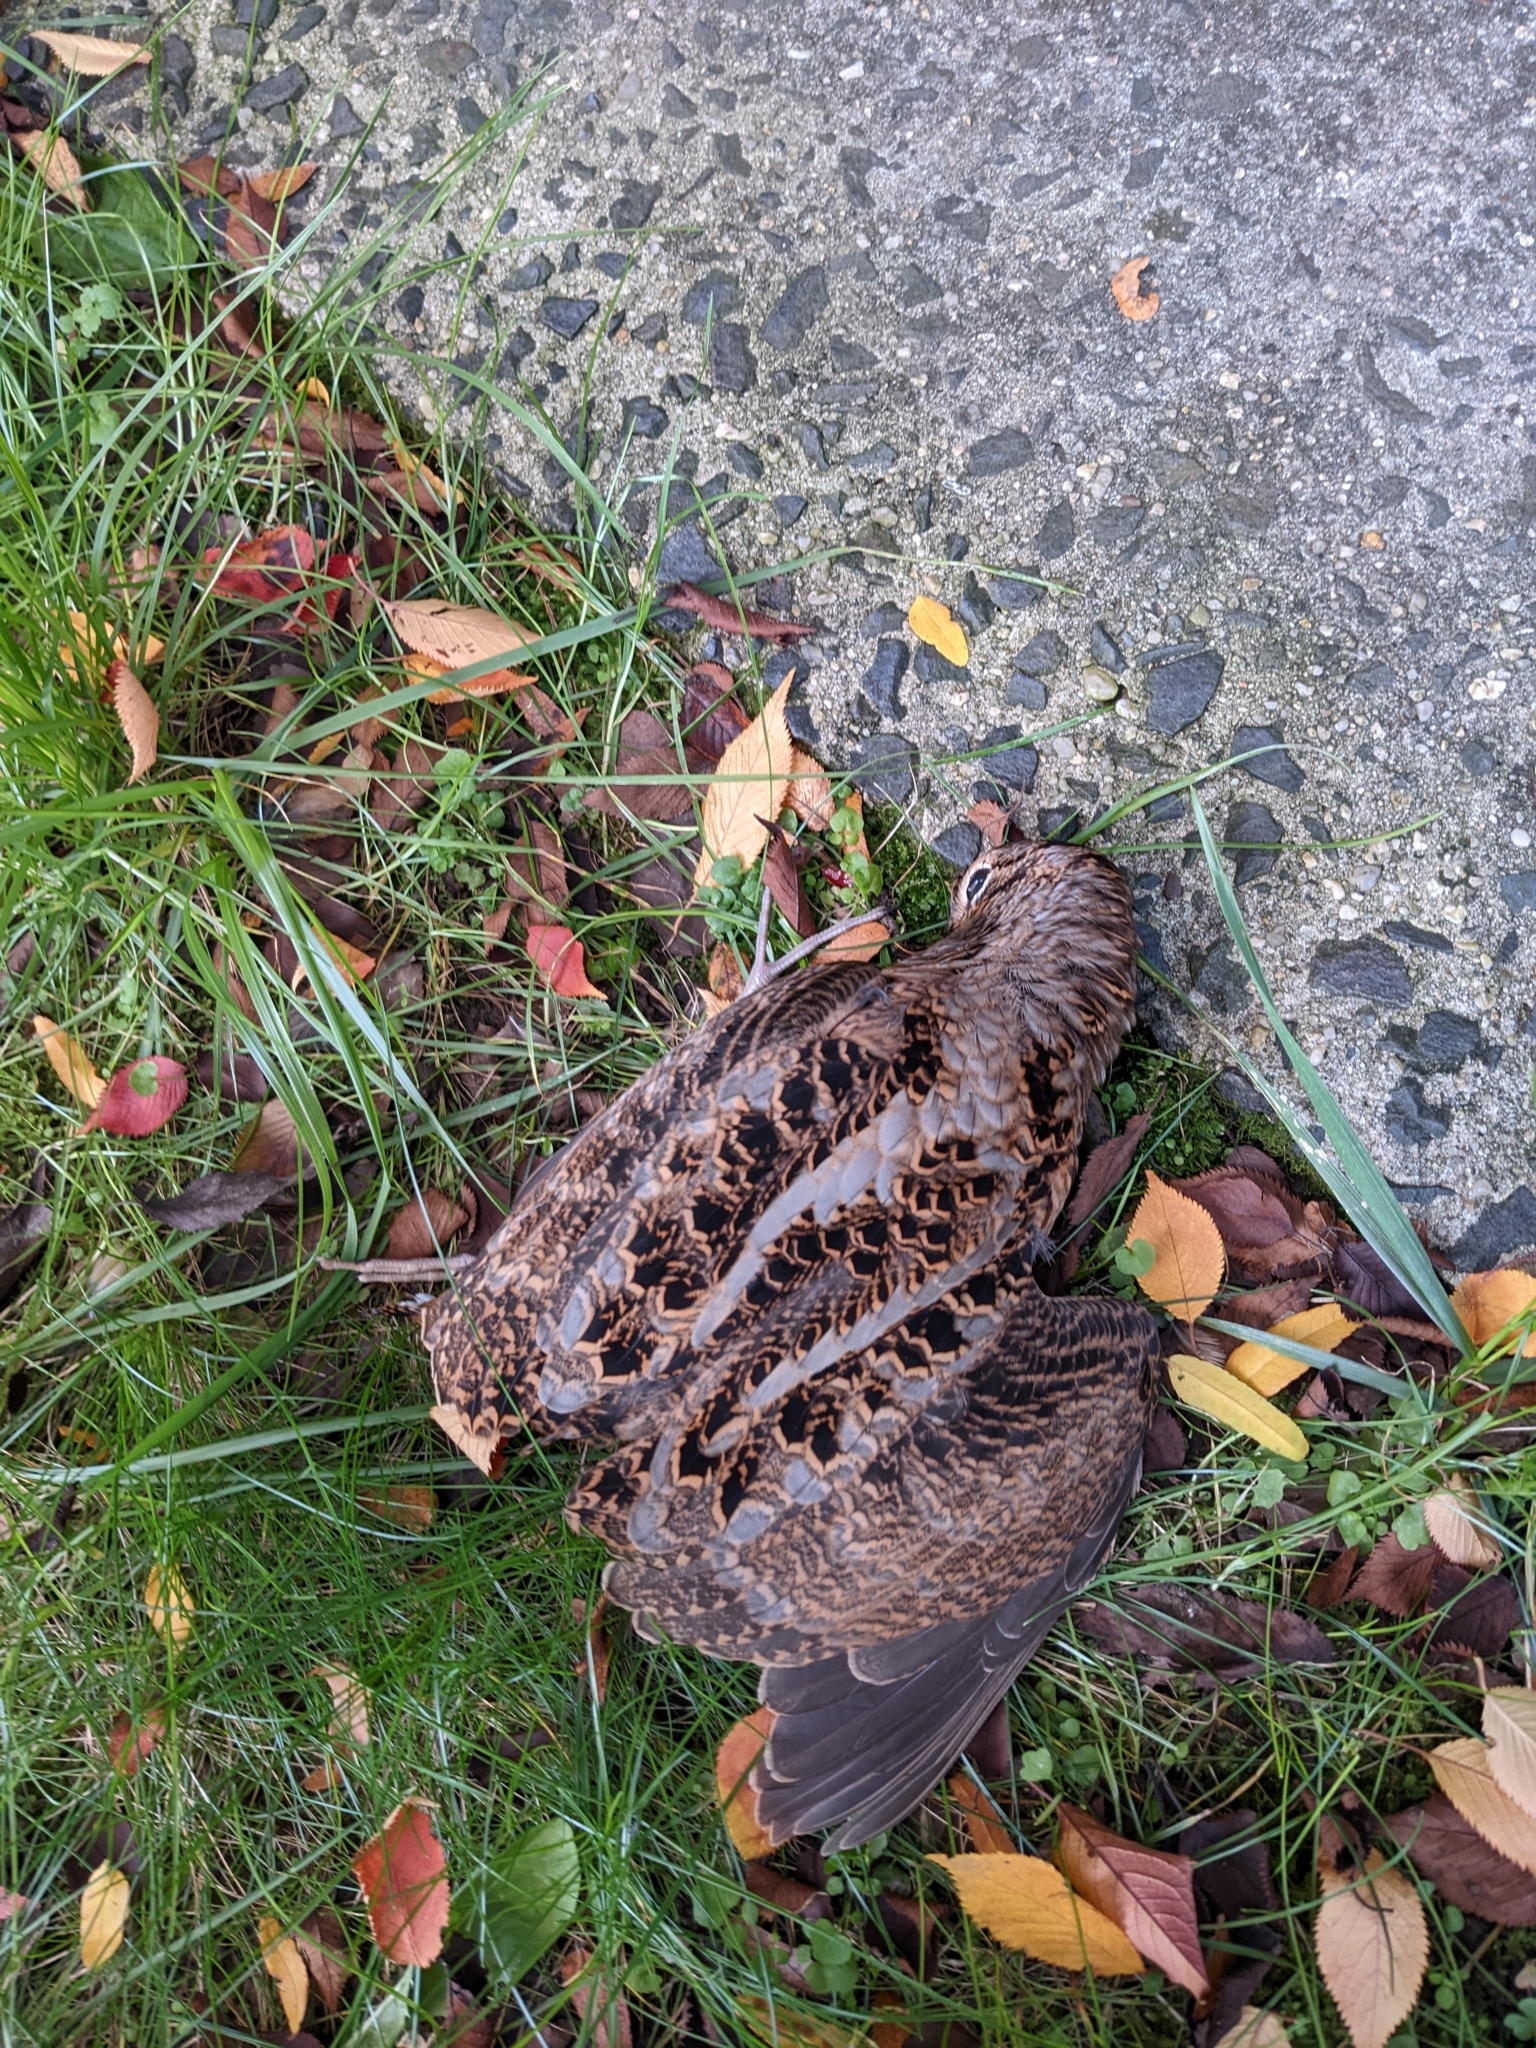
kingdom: Animalia
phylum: Chordata
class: Aves
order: Charadriiformes
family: Scolopacidae
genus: Scolopax
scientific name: Scolopax minor
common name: American woodcock
